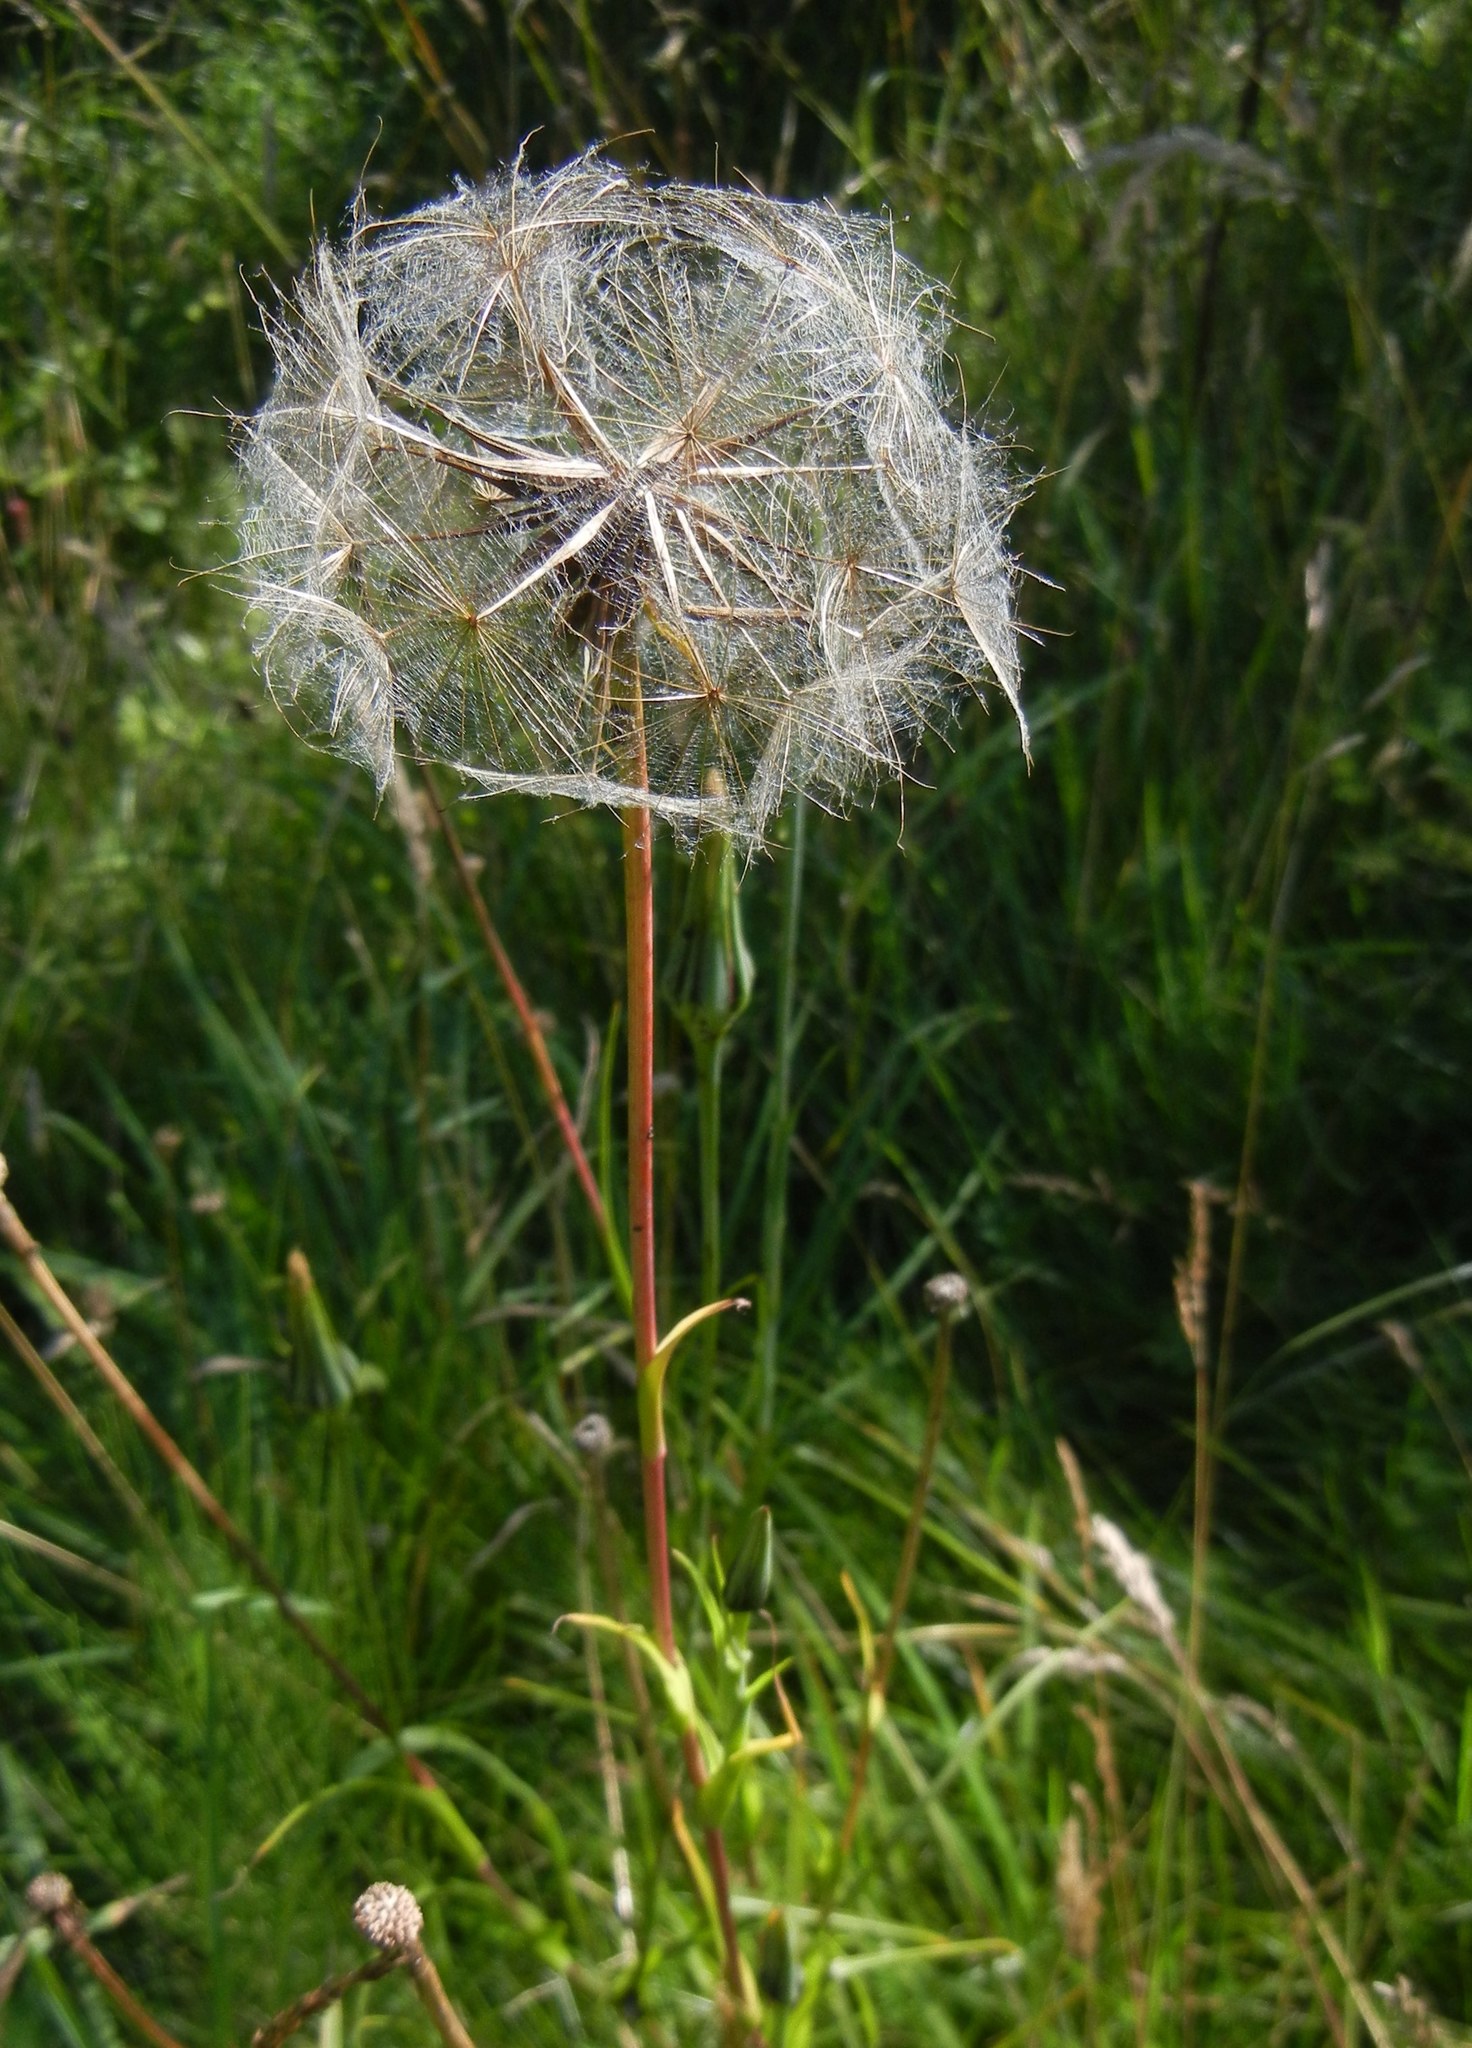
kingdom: Plantae
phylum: Tracheophyta
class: Magnoliopsida
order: Asterales
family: Asteraceae
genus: Tragopogon
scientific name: Tragopogon pratensis
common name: Goat's-beard
